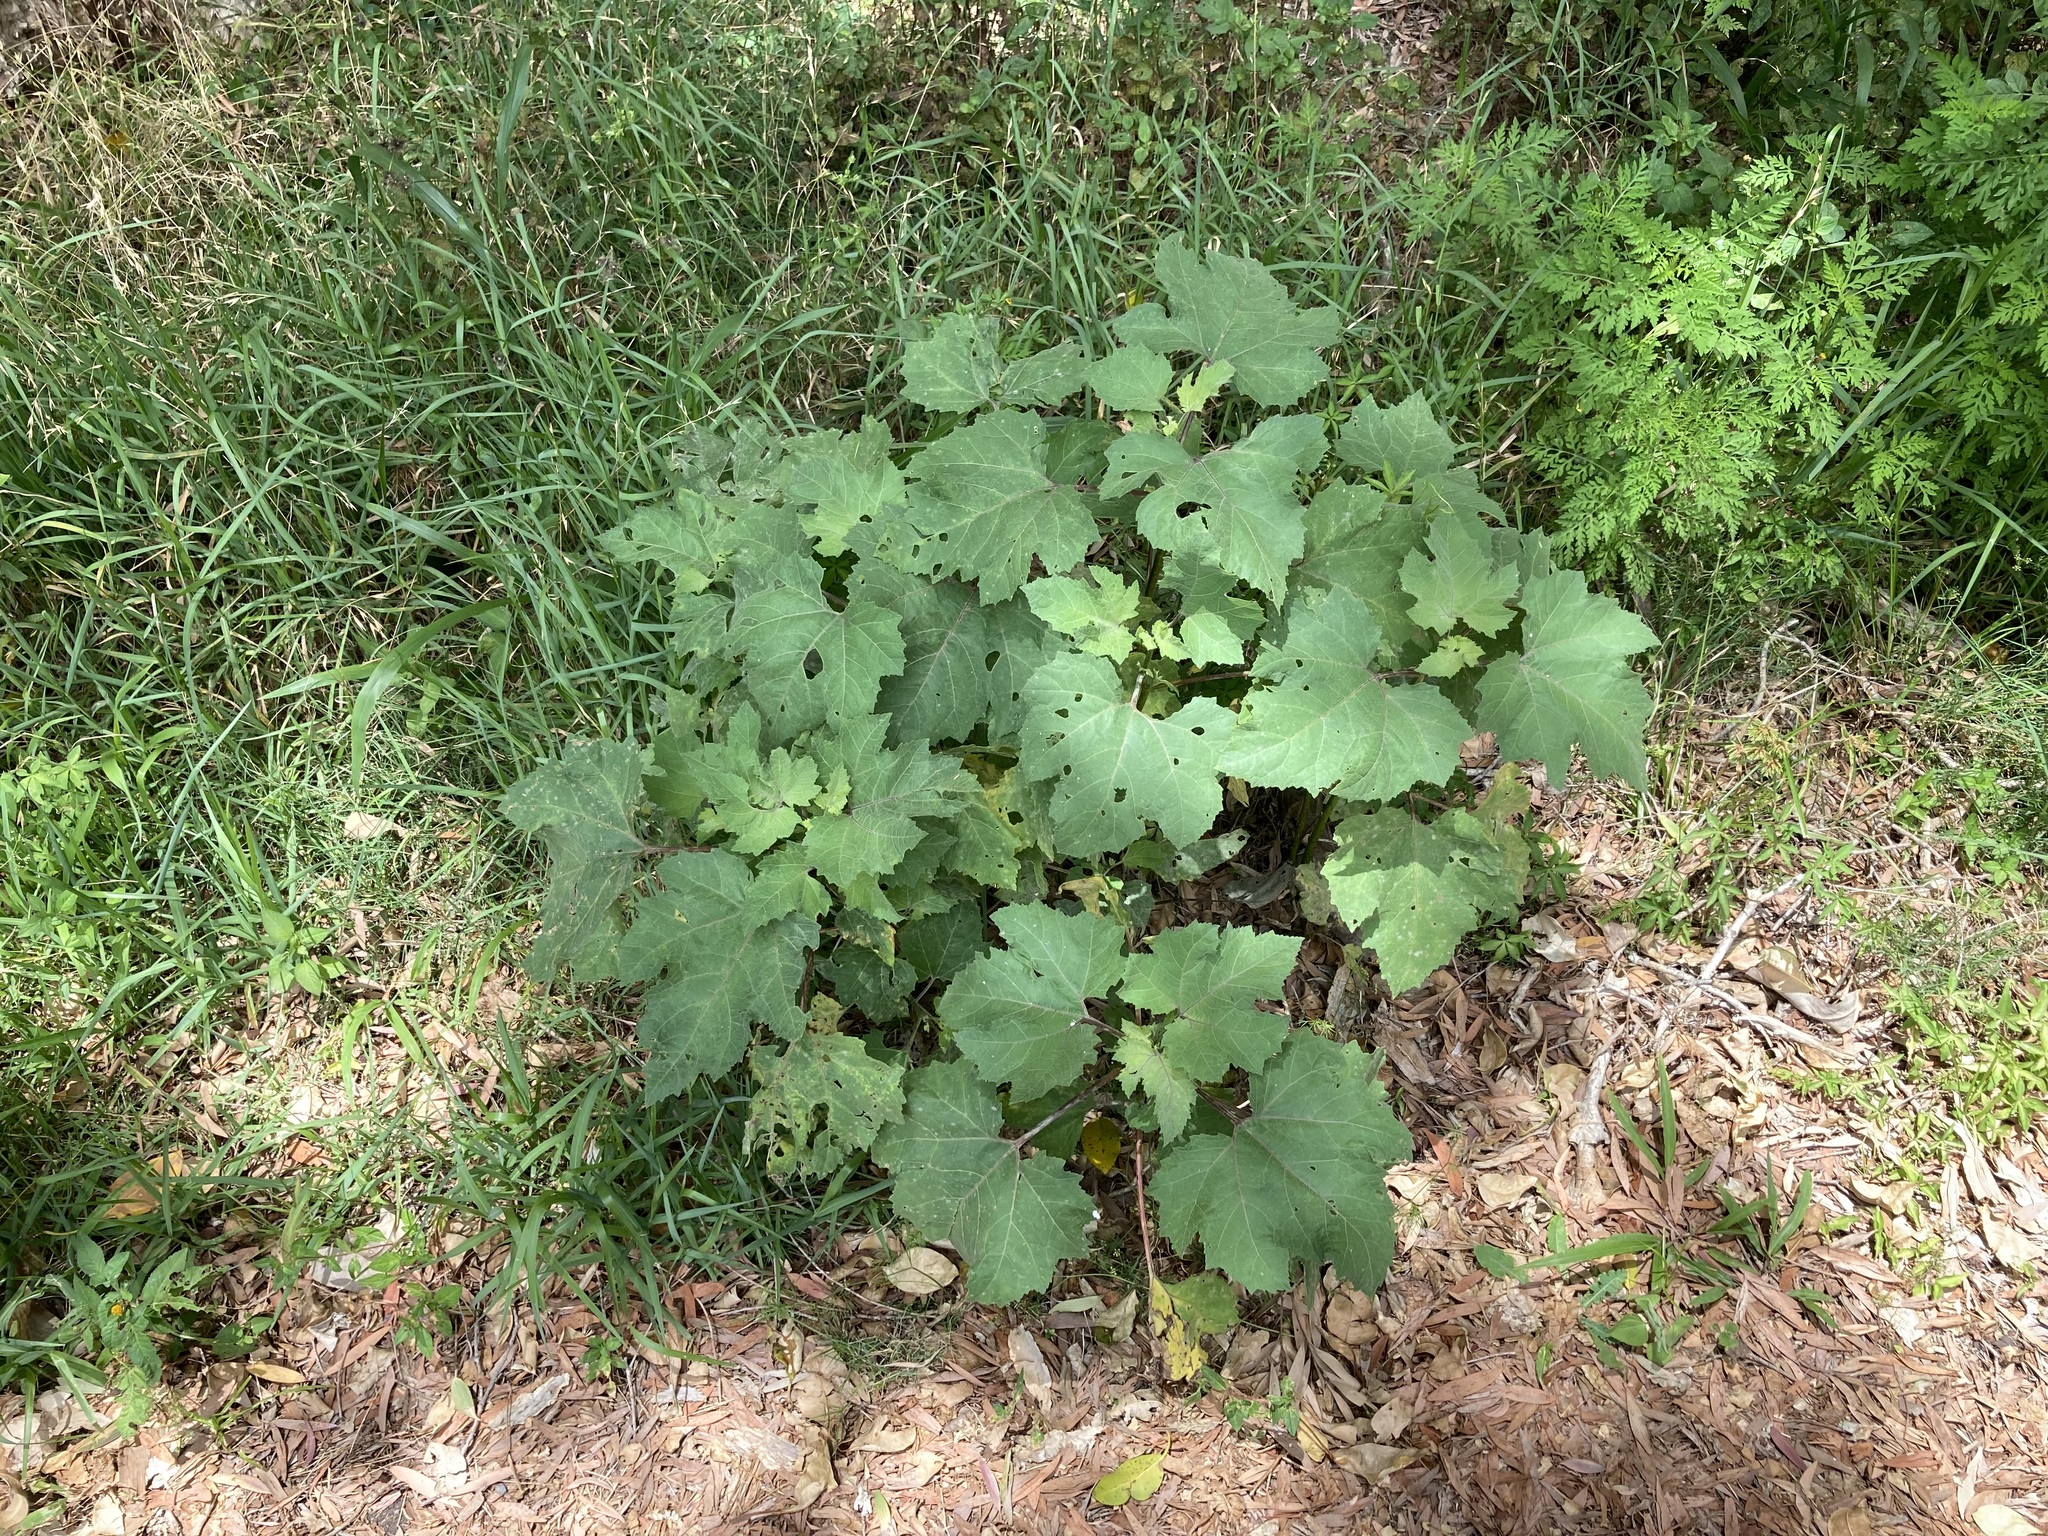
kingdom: Plantae
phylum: Tracheophyta
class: Magnoliopsida
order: Asterales
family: Asteraceae
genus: Xanthium
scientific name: Xanthium strumarium
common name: Rough cocklebur
